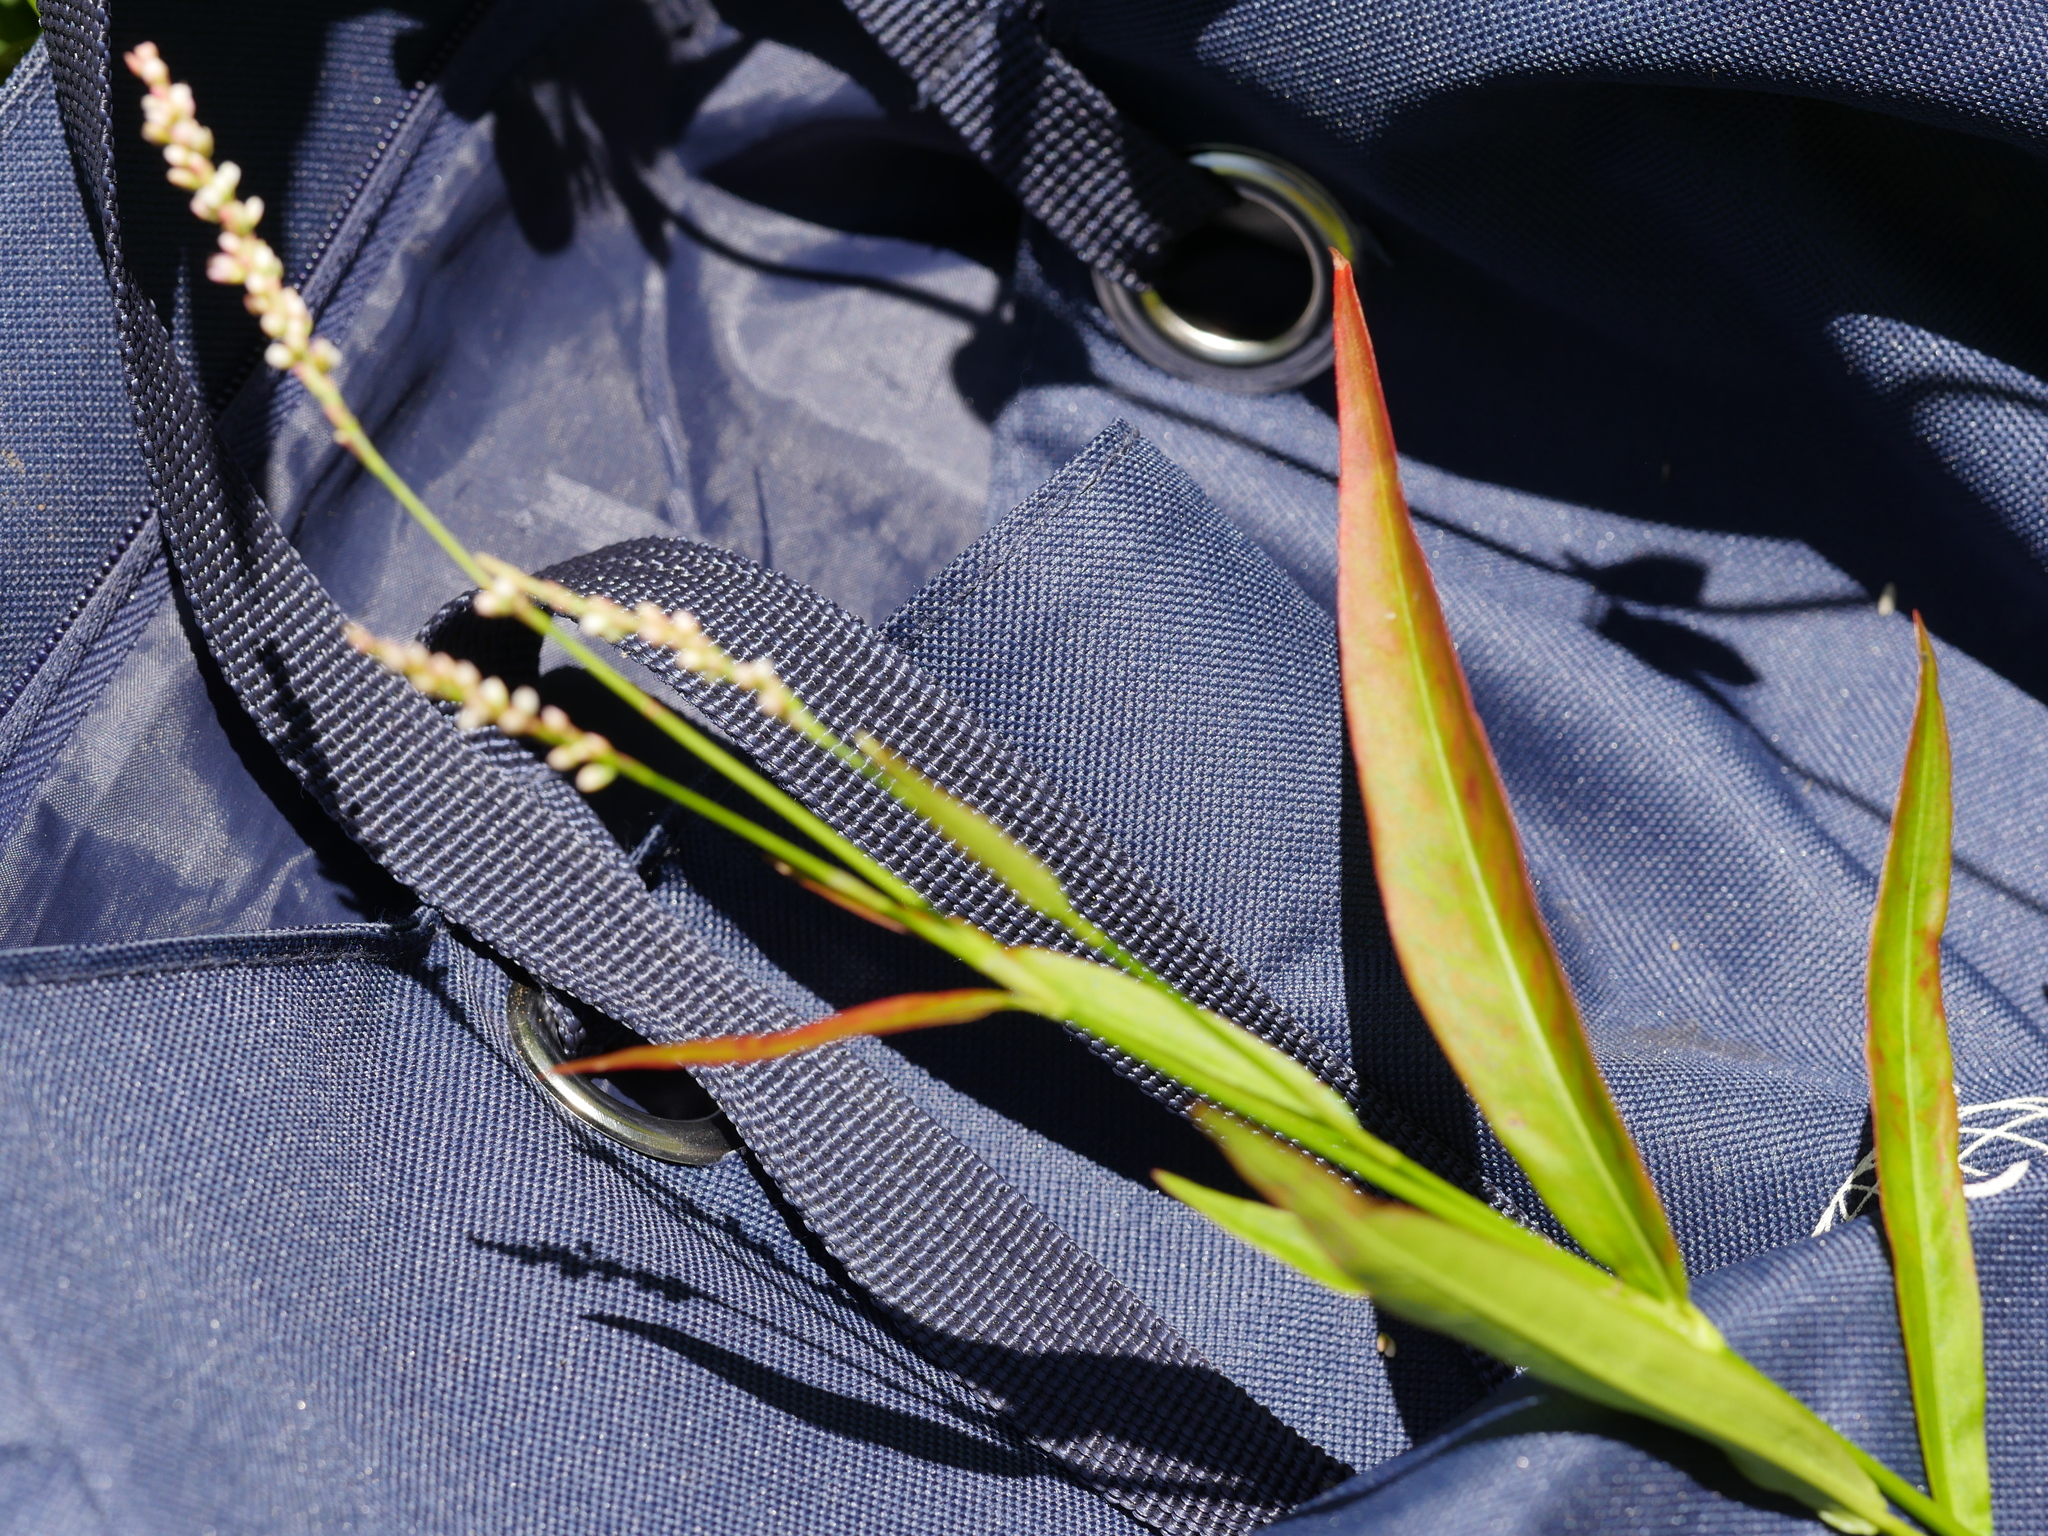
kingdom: Plantae
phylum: Tracheophyta
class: Magnoliopsida
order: Caryophyllales
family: Polygonaceae
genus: Persicaria
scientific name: Persicaria decipiens
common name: Willow-weed
